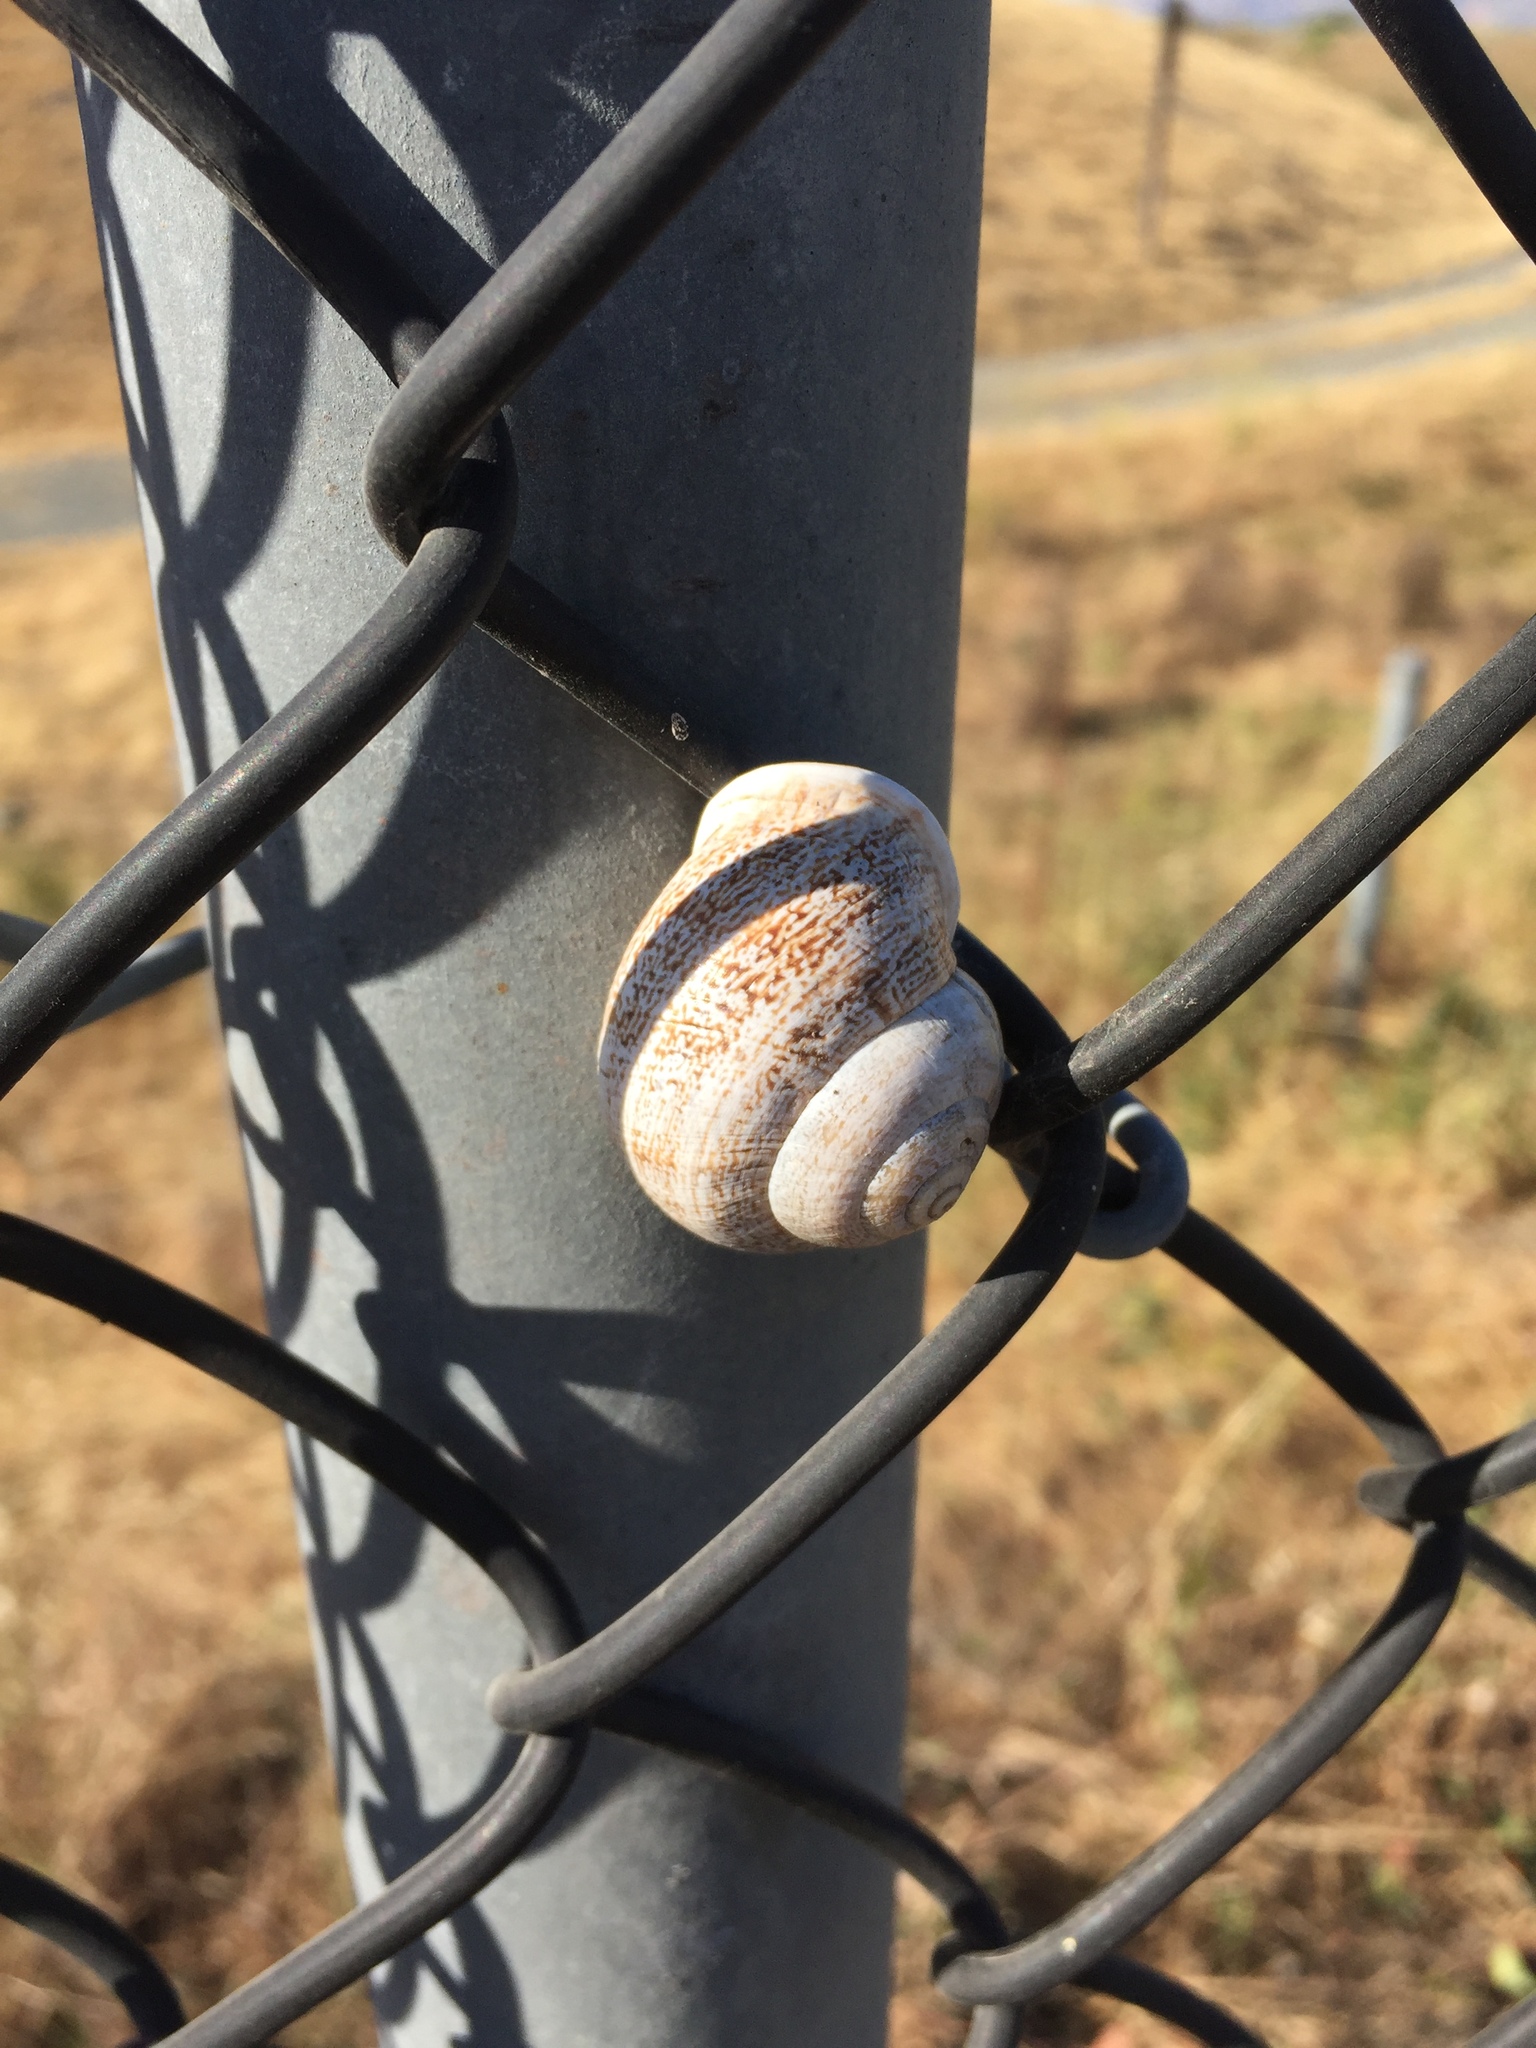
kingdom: Animalia
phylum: Mollusca
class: Gastropoda
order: Stylommatophora
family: Helicidae
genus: Otala
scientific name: Otala lactea
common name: Milk snail
